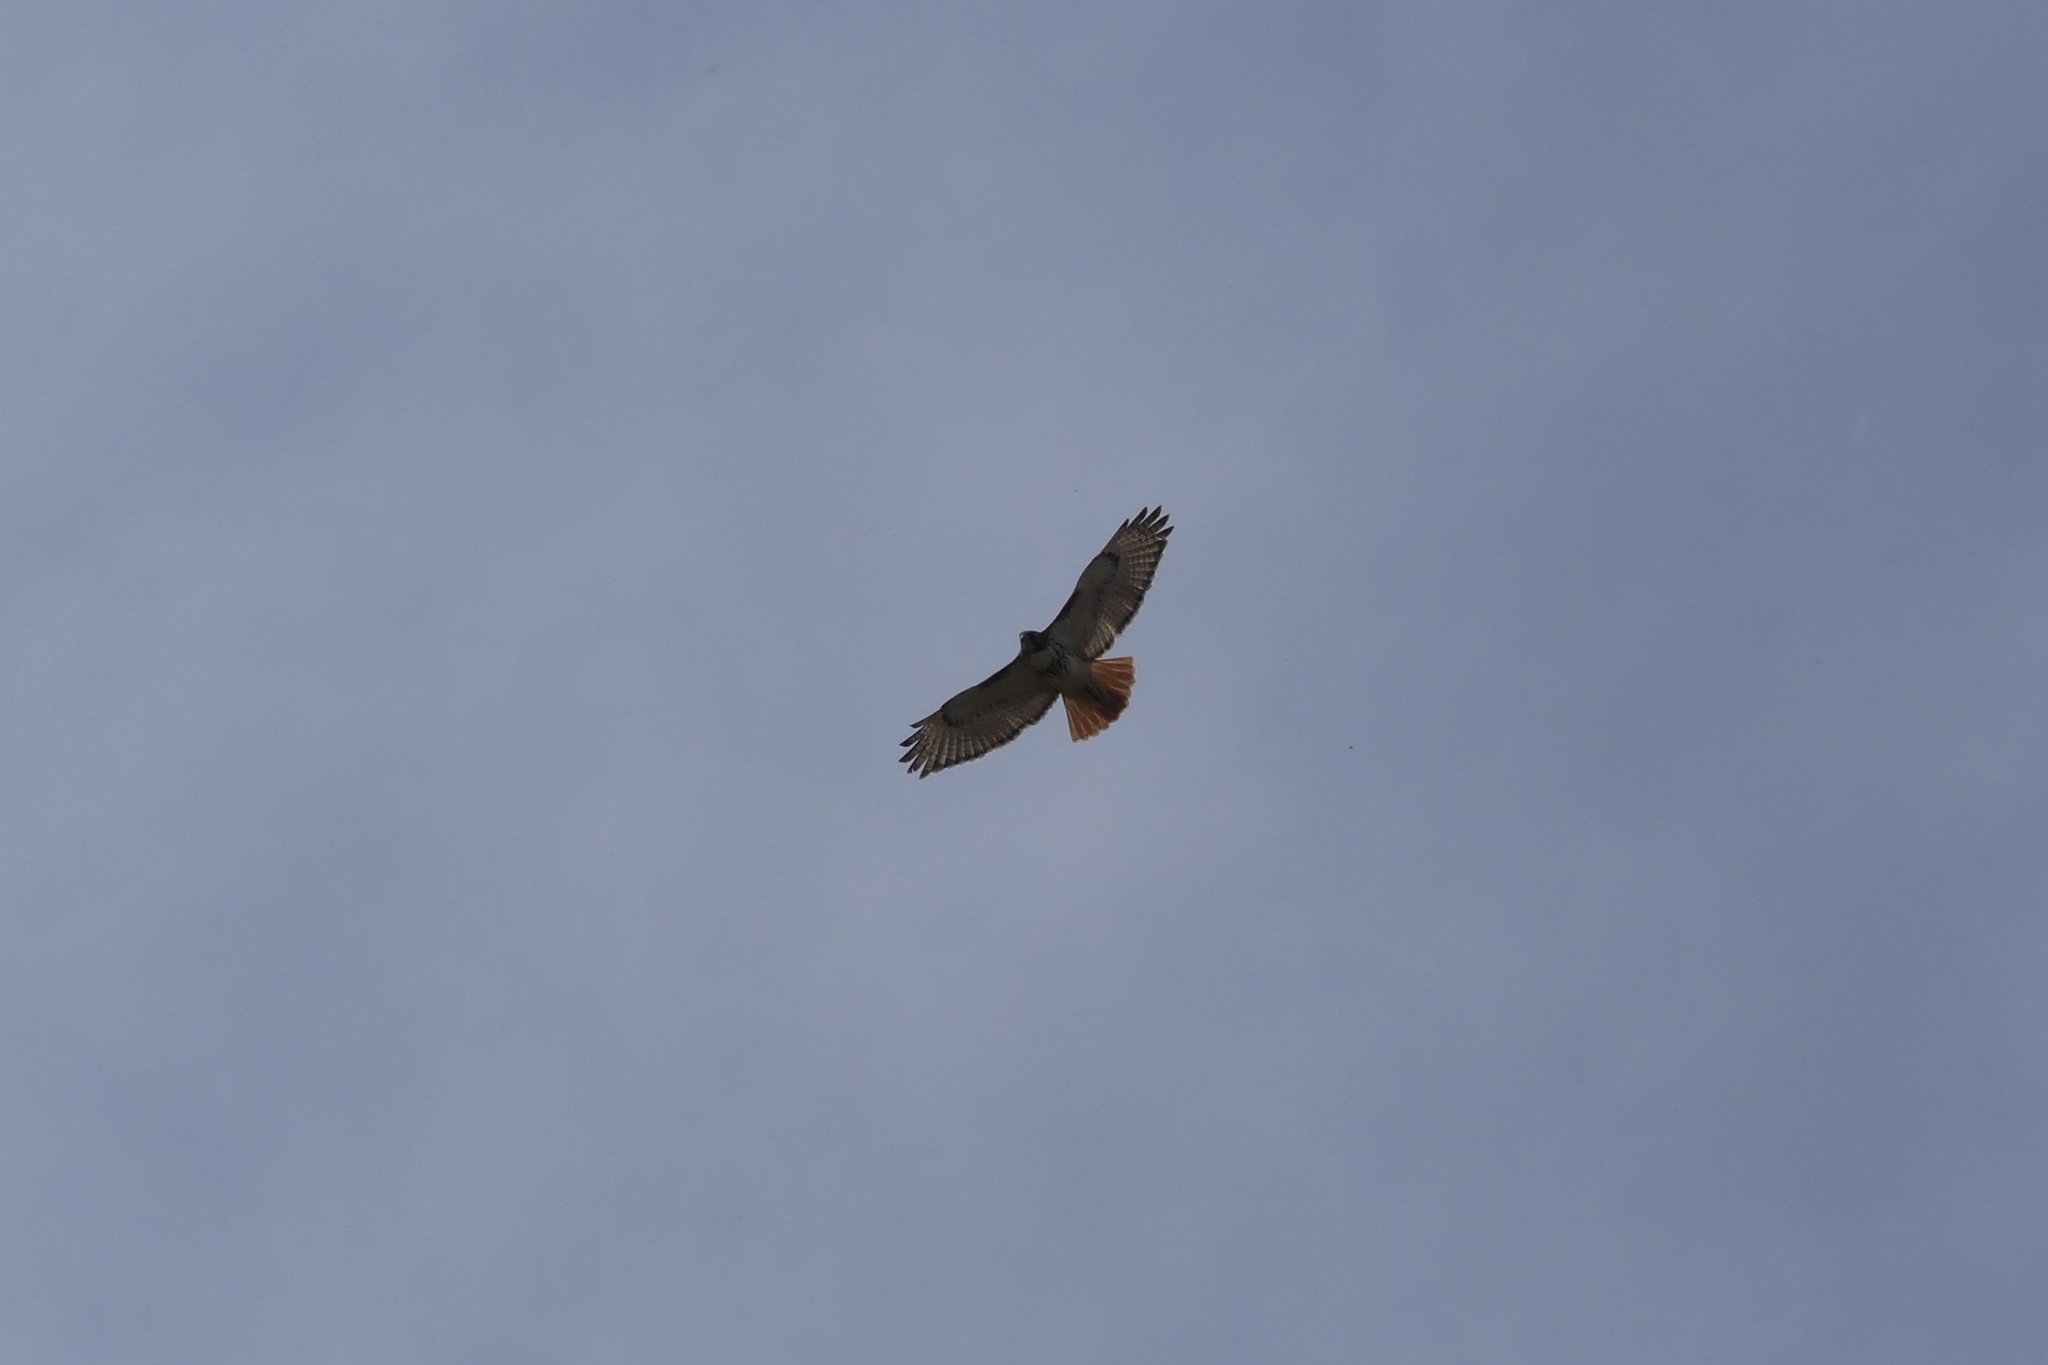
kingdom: Animalia
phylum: Chordata
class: Aves
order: Accipitriformes
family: Accipitridae
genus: Buteo
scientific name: Buteo jamaicensis
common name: Red-tailed hawk
